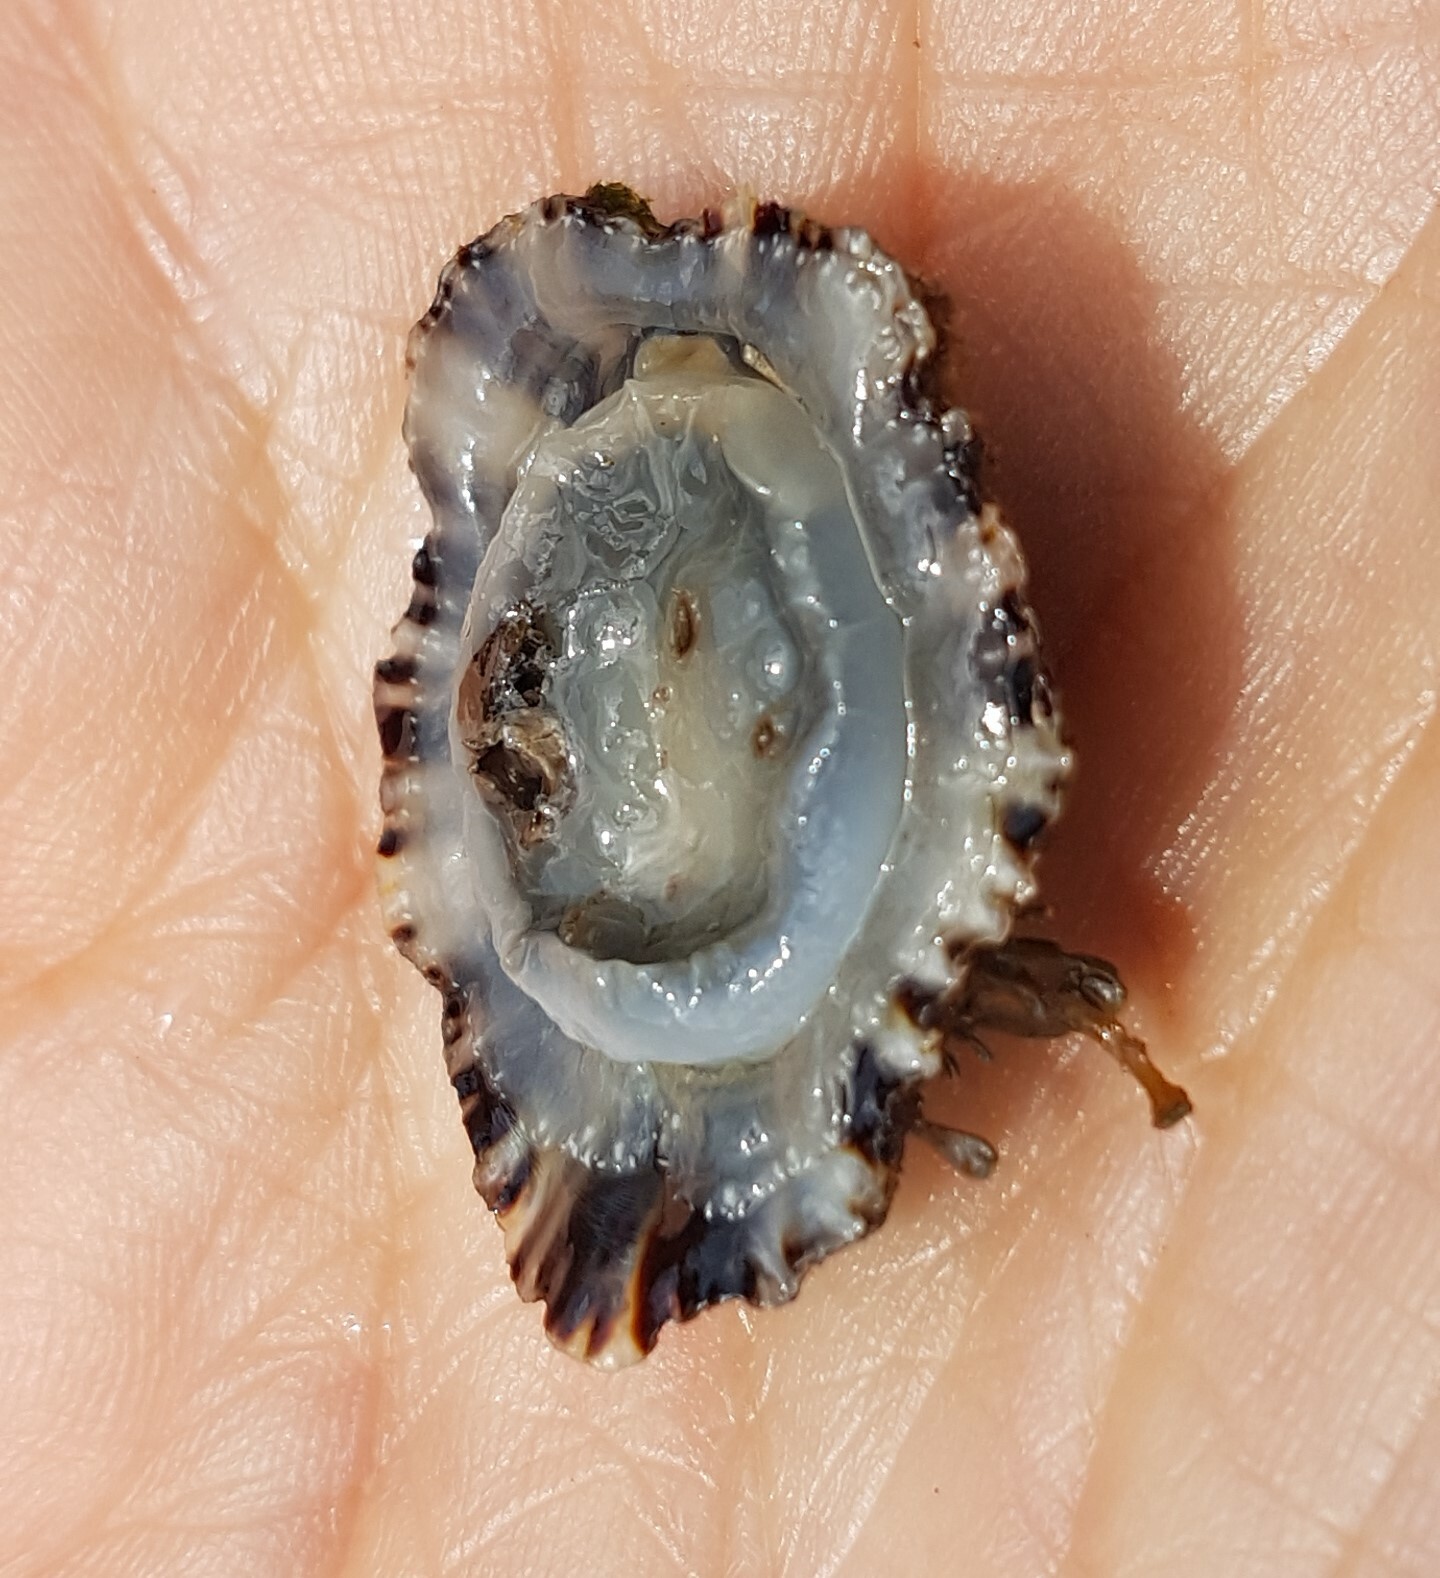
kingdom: Animalia
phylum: Mollusca
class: Gastropoda
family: Patellidae
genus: Patella
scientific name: Patella depressa
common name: Black-footed limpet
